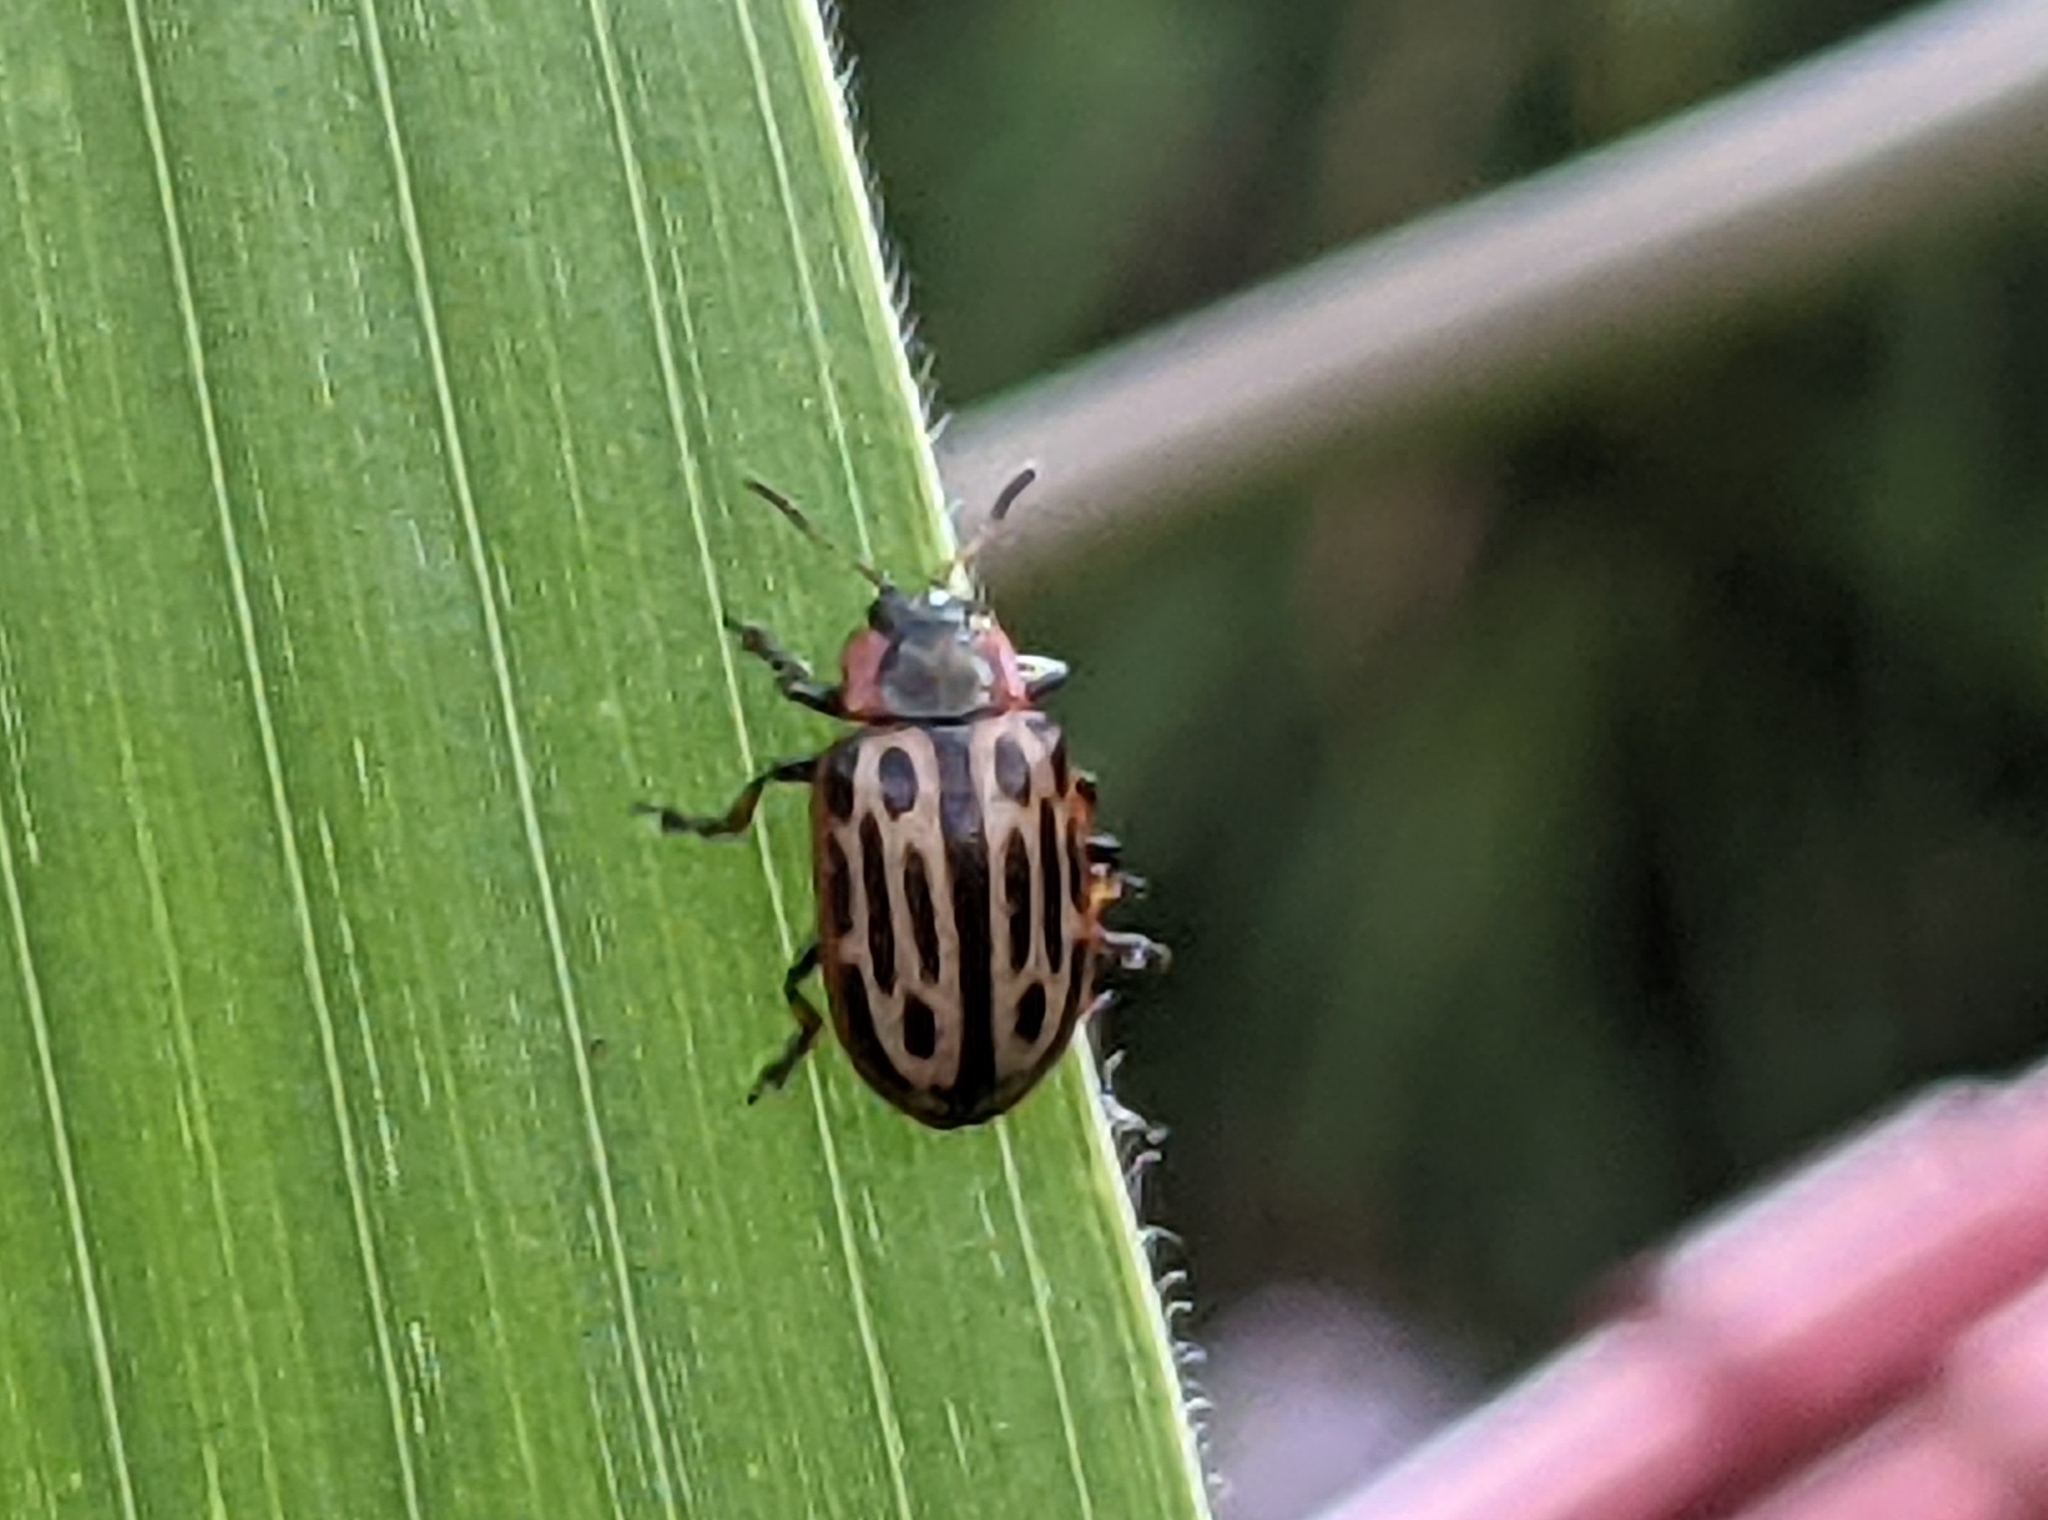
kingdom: Animalia
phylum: Arthropoda
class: Insecta
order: Coleoptera
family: Chrysomelidae
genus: Aethiopocassis
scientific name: Aethiopocassis scripta
